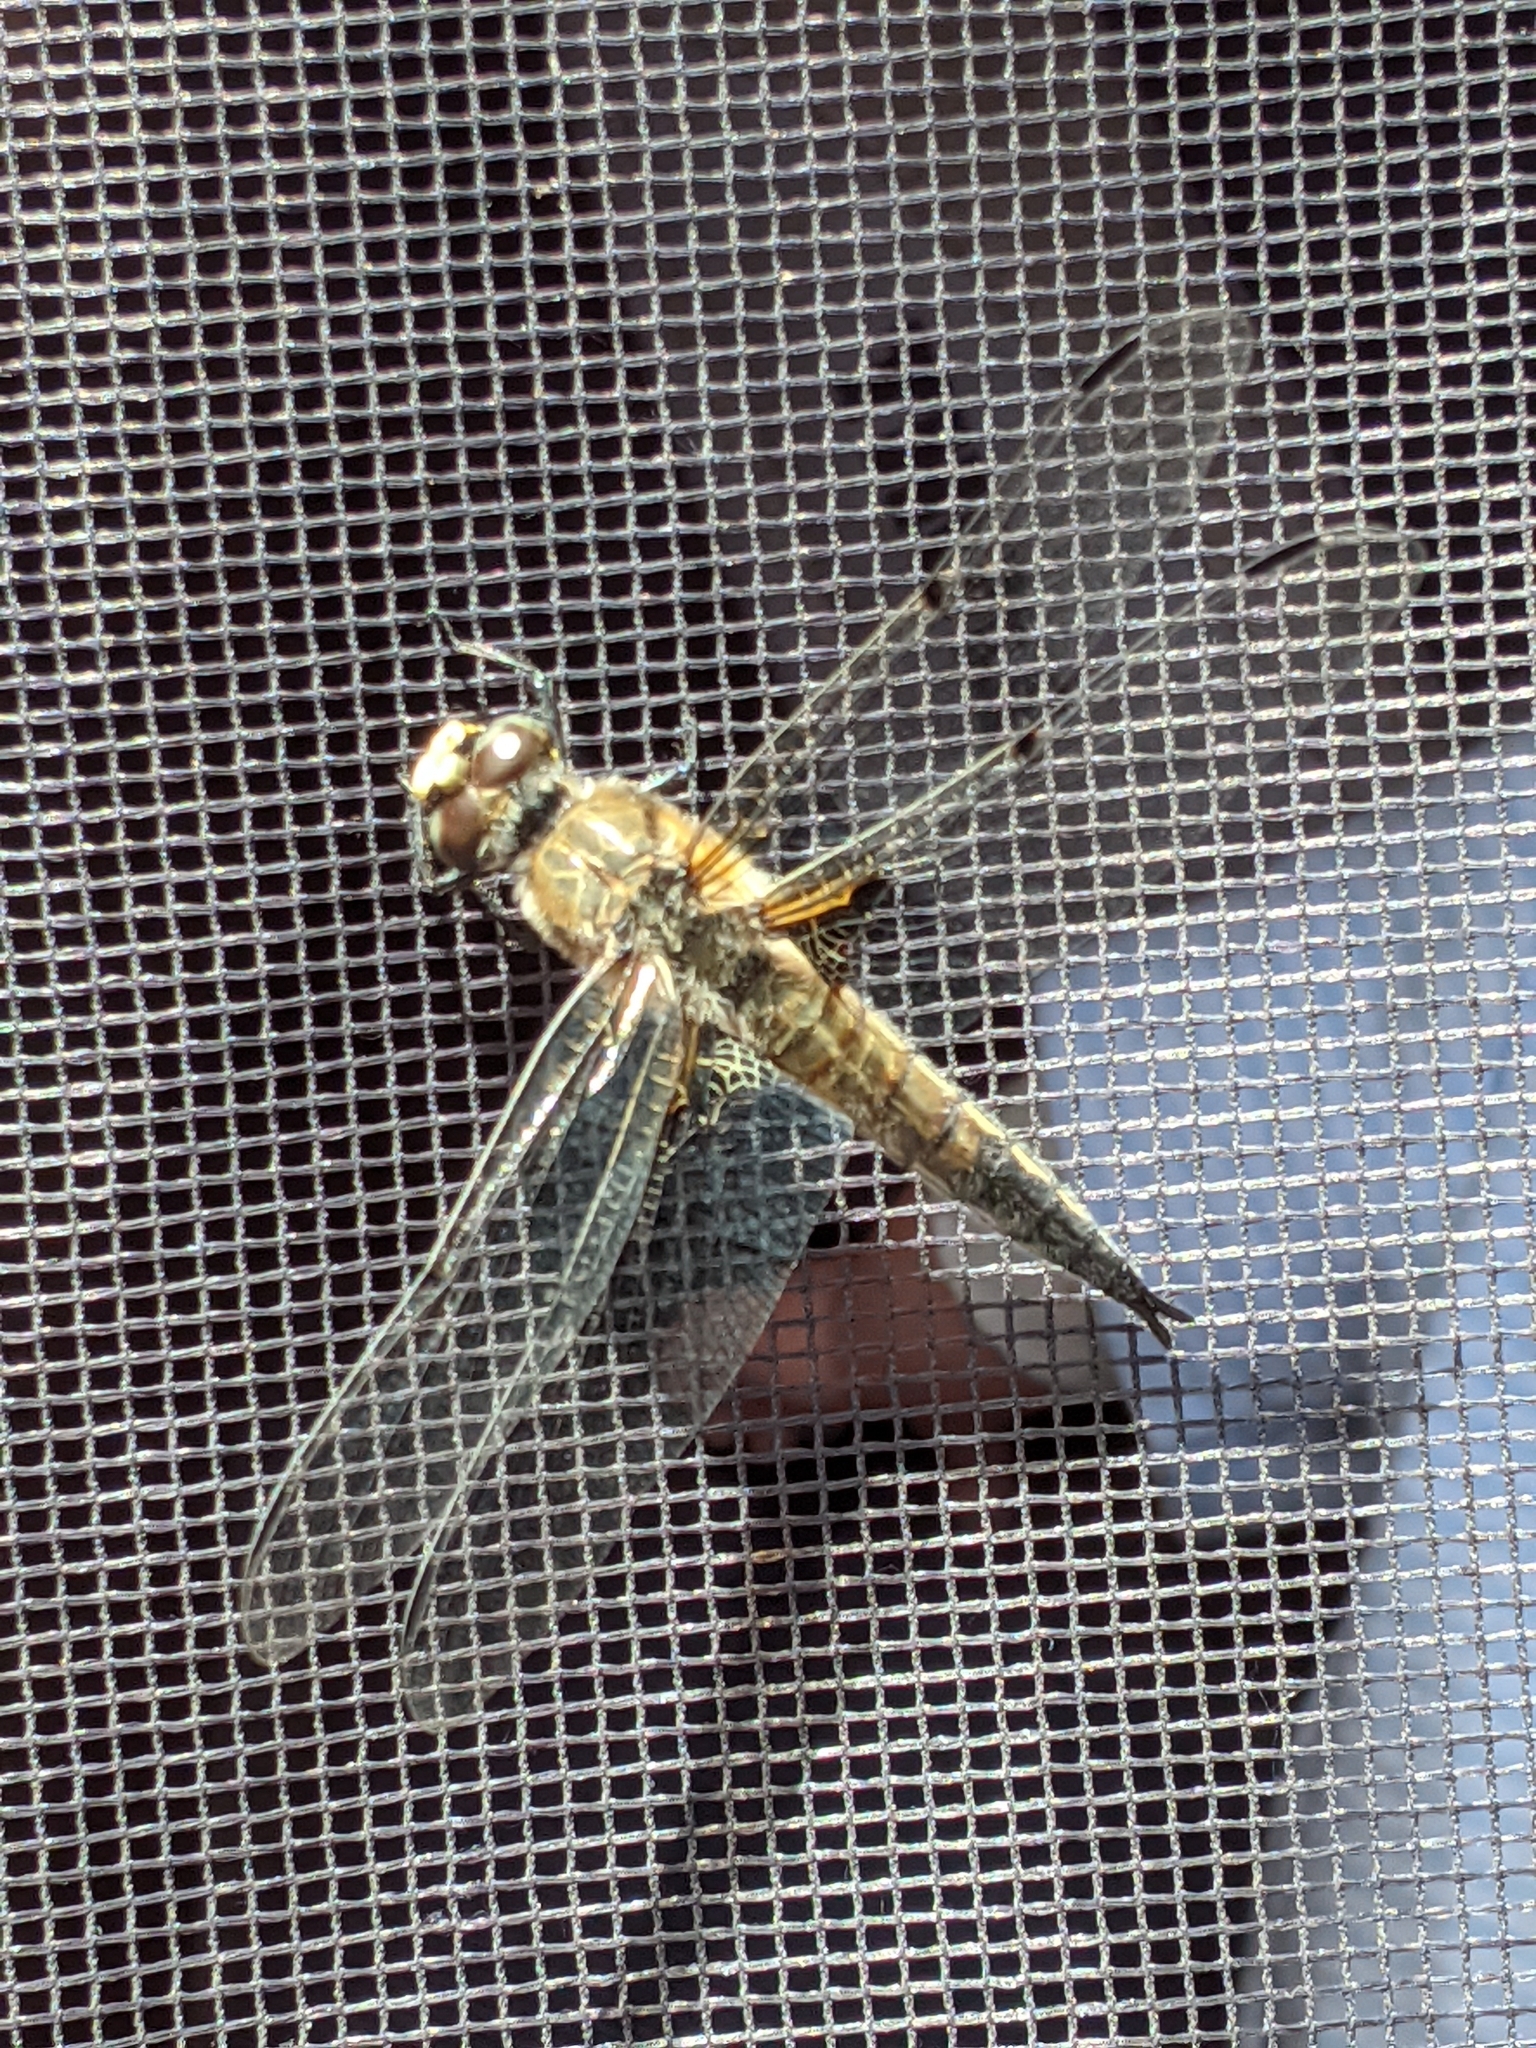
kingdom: Animalia
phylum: Arthropoda
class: Insecta
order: Odonata
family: Libellulidae
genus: Libellula
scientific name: Libellula quadrimaculata
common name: Four-spotted chaser
